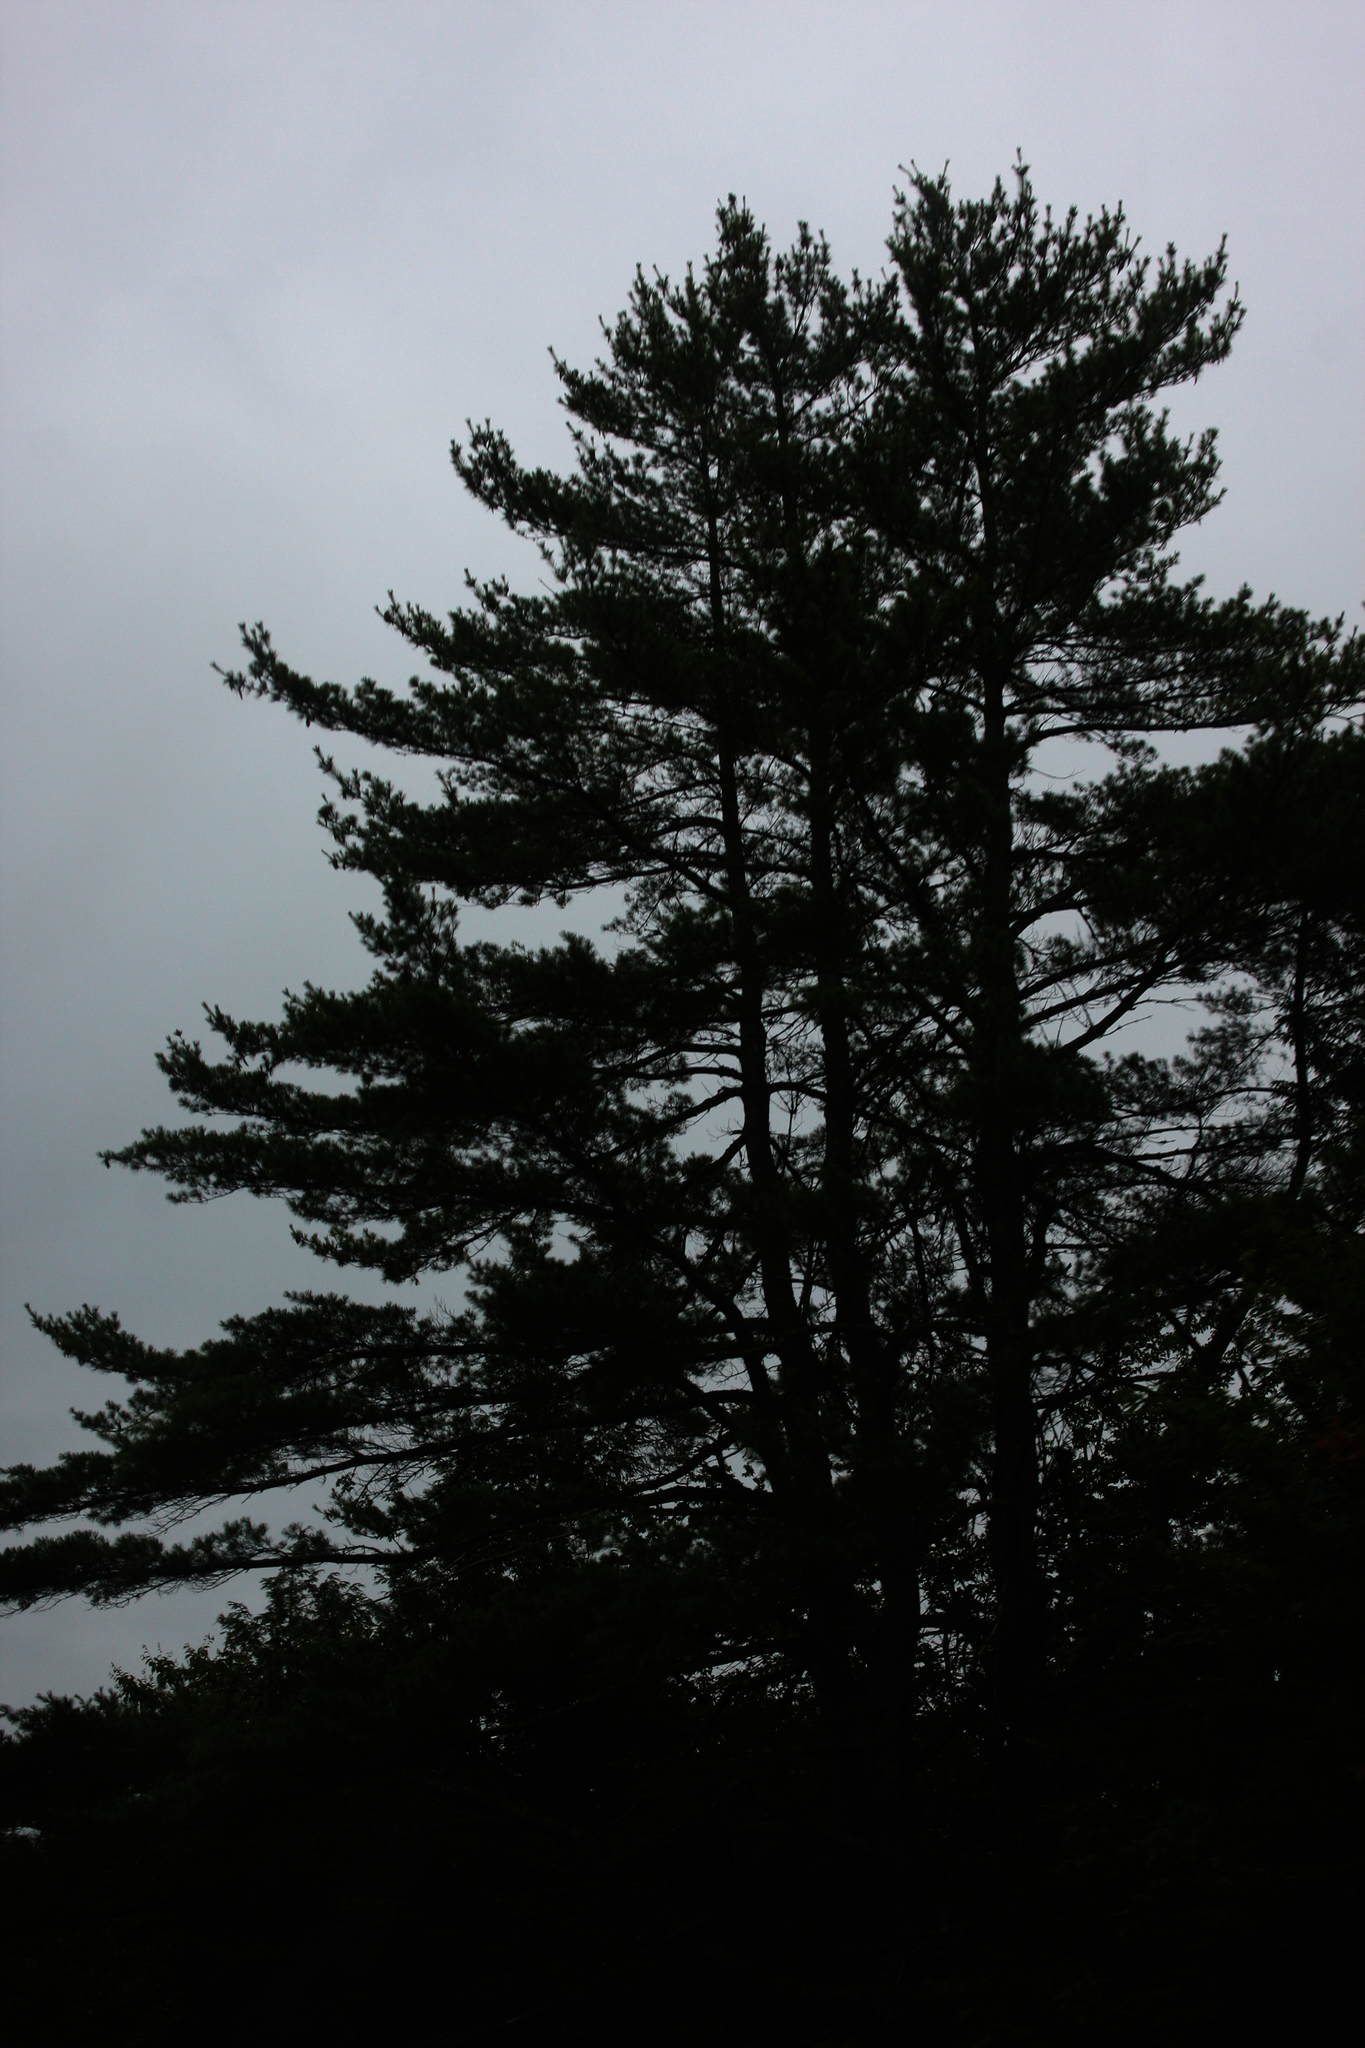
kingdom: Plantae
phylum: Tracheophyta
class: Pinopsida
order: Pinales
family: Pinaceae
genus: Pinus
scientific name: Pinus strobus
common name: Weymouth pine
